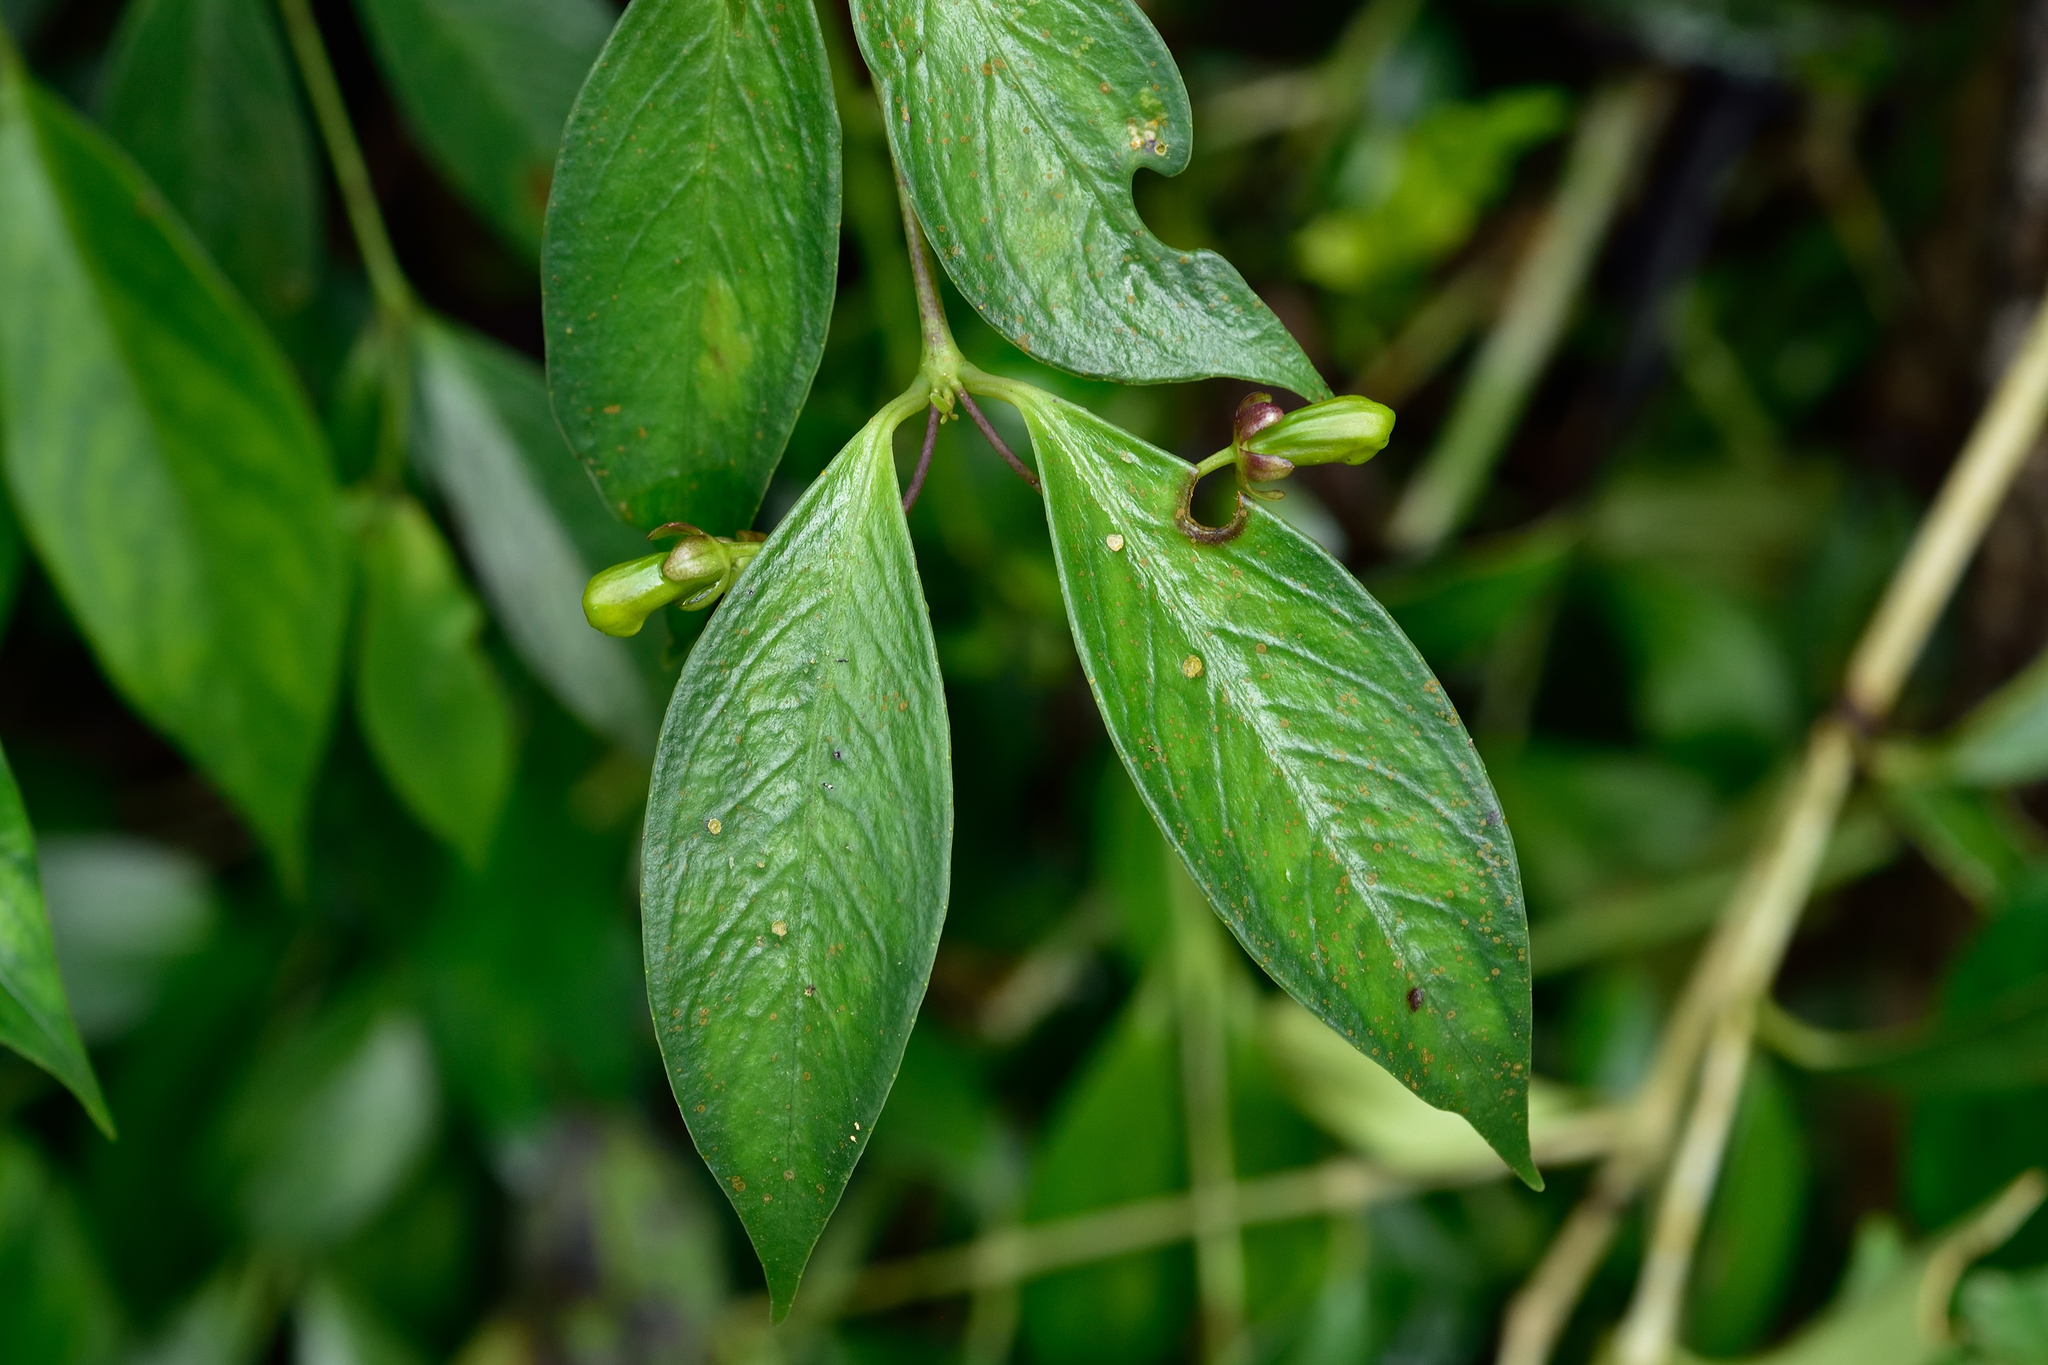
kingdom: Plantae
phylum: Tracheophyta
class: Magnoliopsida
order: Lamiales
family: Gesneriaceae
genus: Aeschynanthus
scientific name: Aeschynanthus acuminatus
